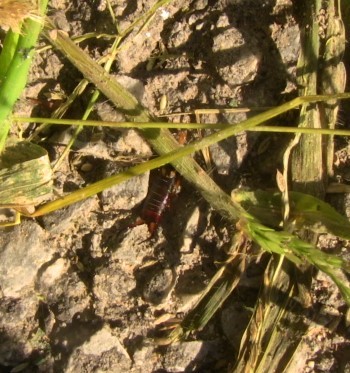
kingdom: Animalia
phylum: Arthropoda
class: Insecta
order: Dermaptera
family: Forficulidae
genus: Forficula
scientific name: Forficula
